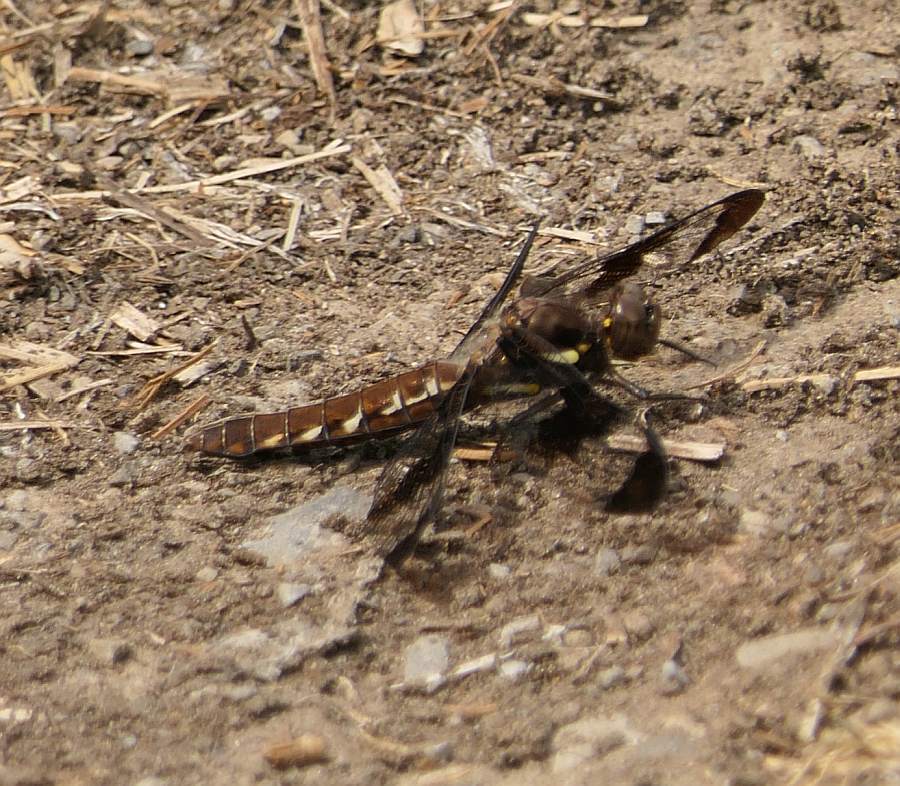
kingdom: Animalia
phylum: Arthropoda
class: Insecta
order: Odonata
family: Libellulidae
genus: Plathemis
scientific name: Plathemis lydia
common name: Common whitetail
